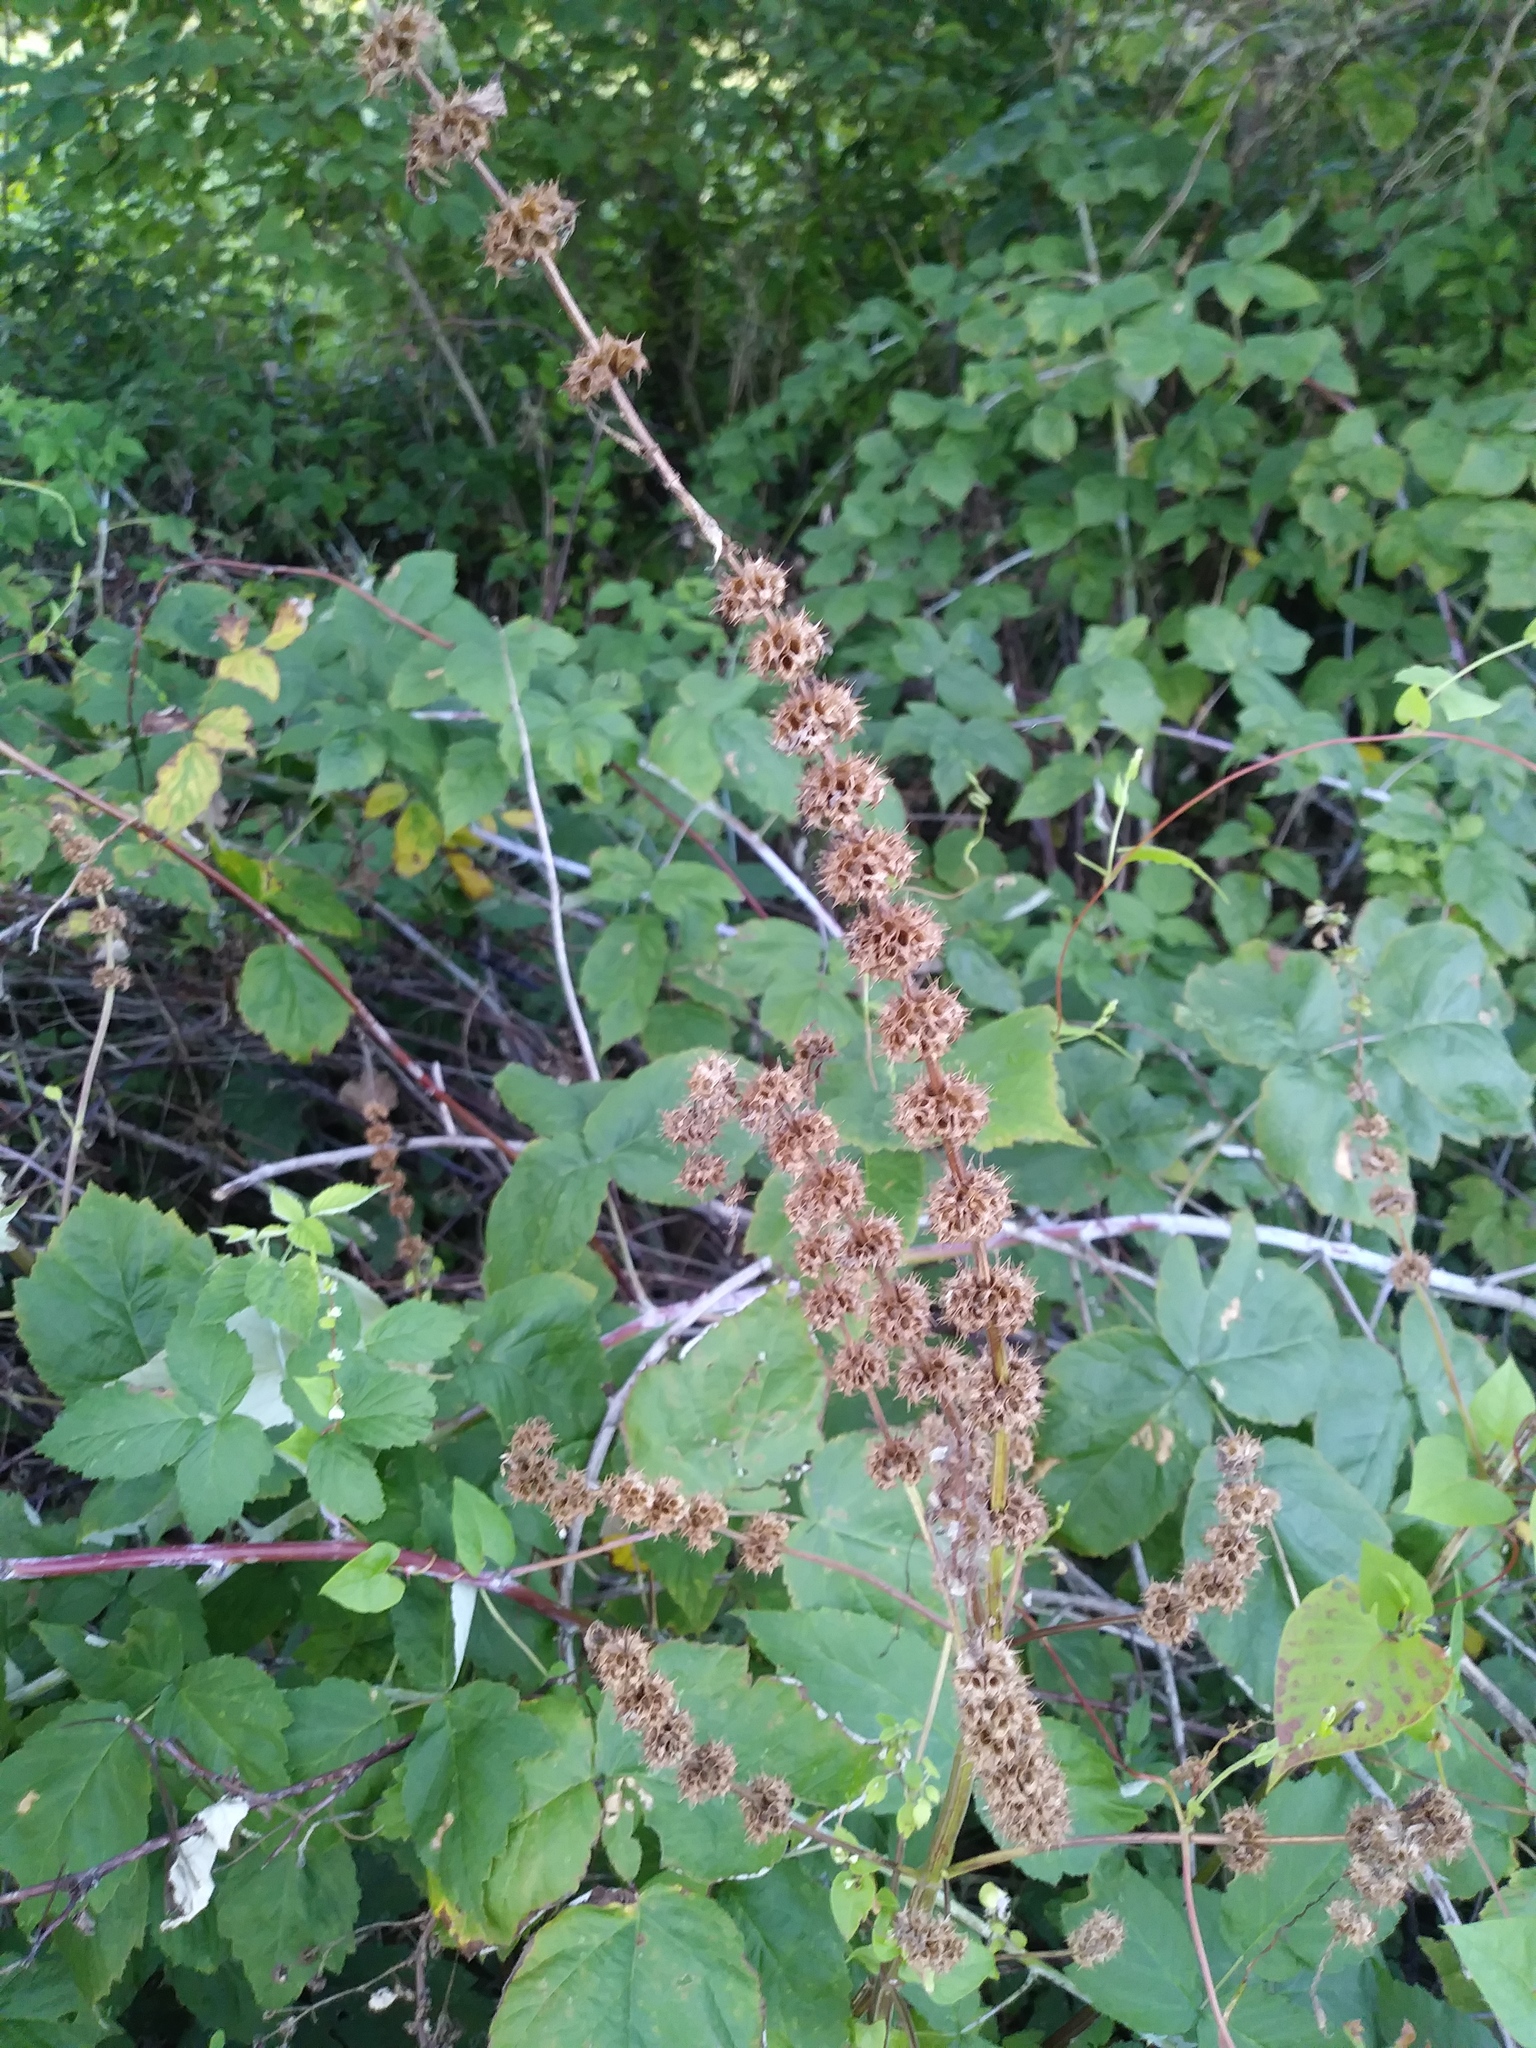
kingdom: Plantae
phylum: Tracheophyta
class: Magnoliopsida
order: Lamiales
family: Lamiaceae
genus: Leonurus
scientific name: Leonurus cardiaca
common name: Motherwort
